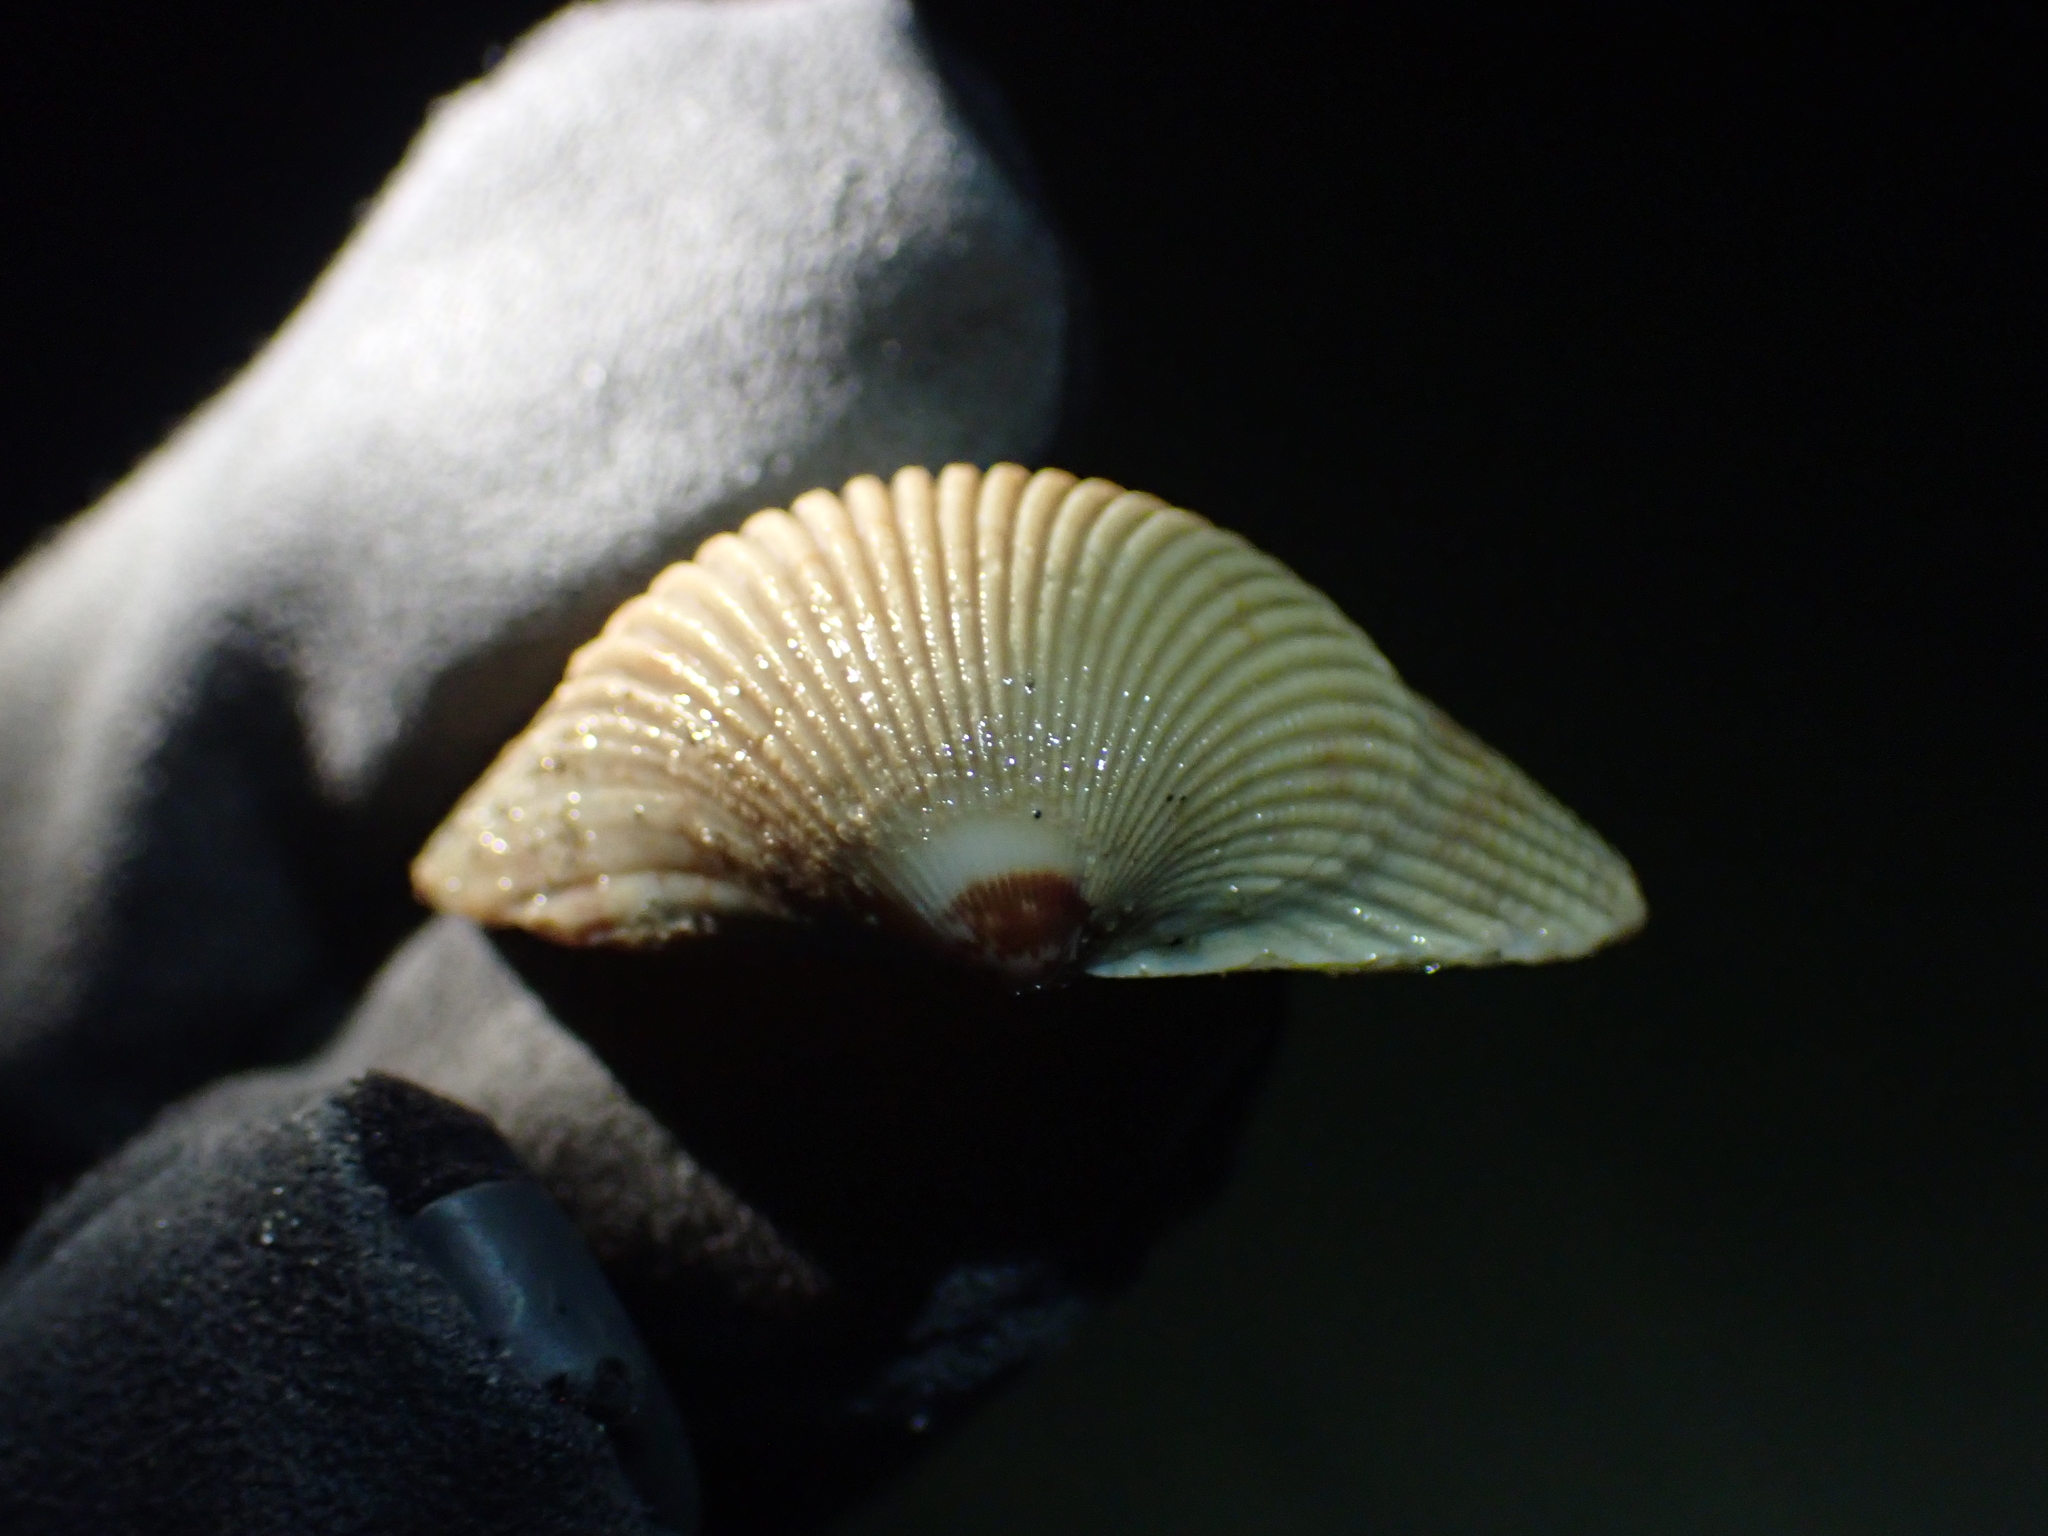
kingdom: Animalia
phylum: Mollusca
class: Bivalvia
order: Cardiida
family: Cardiidae
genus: Clinocardium
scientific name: Clinocardium nuttallii
